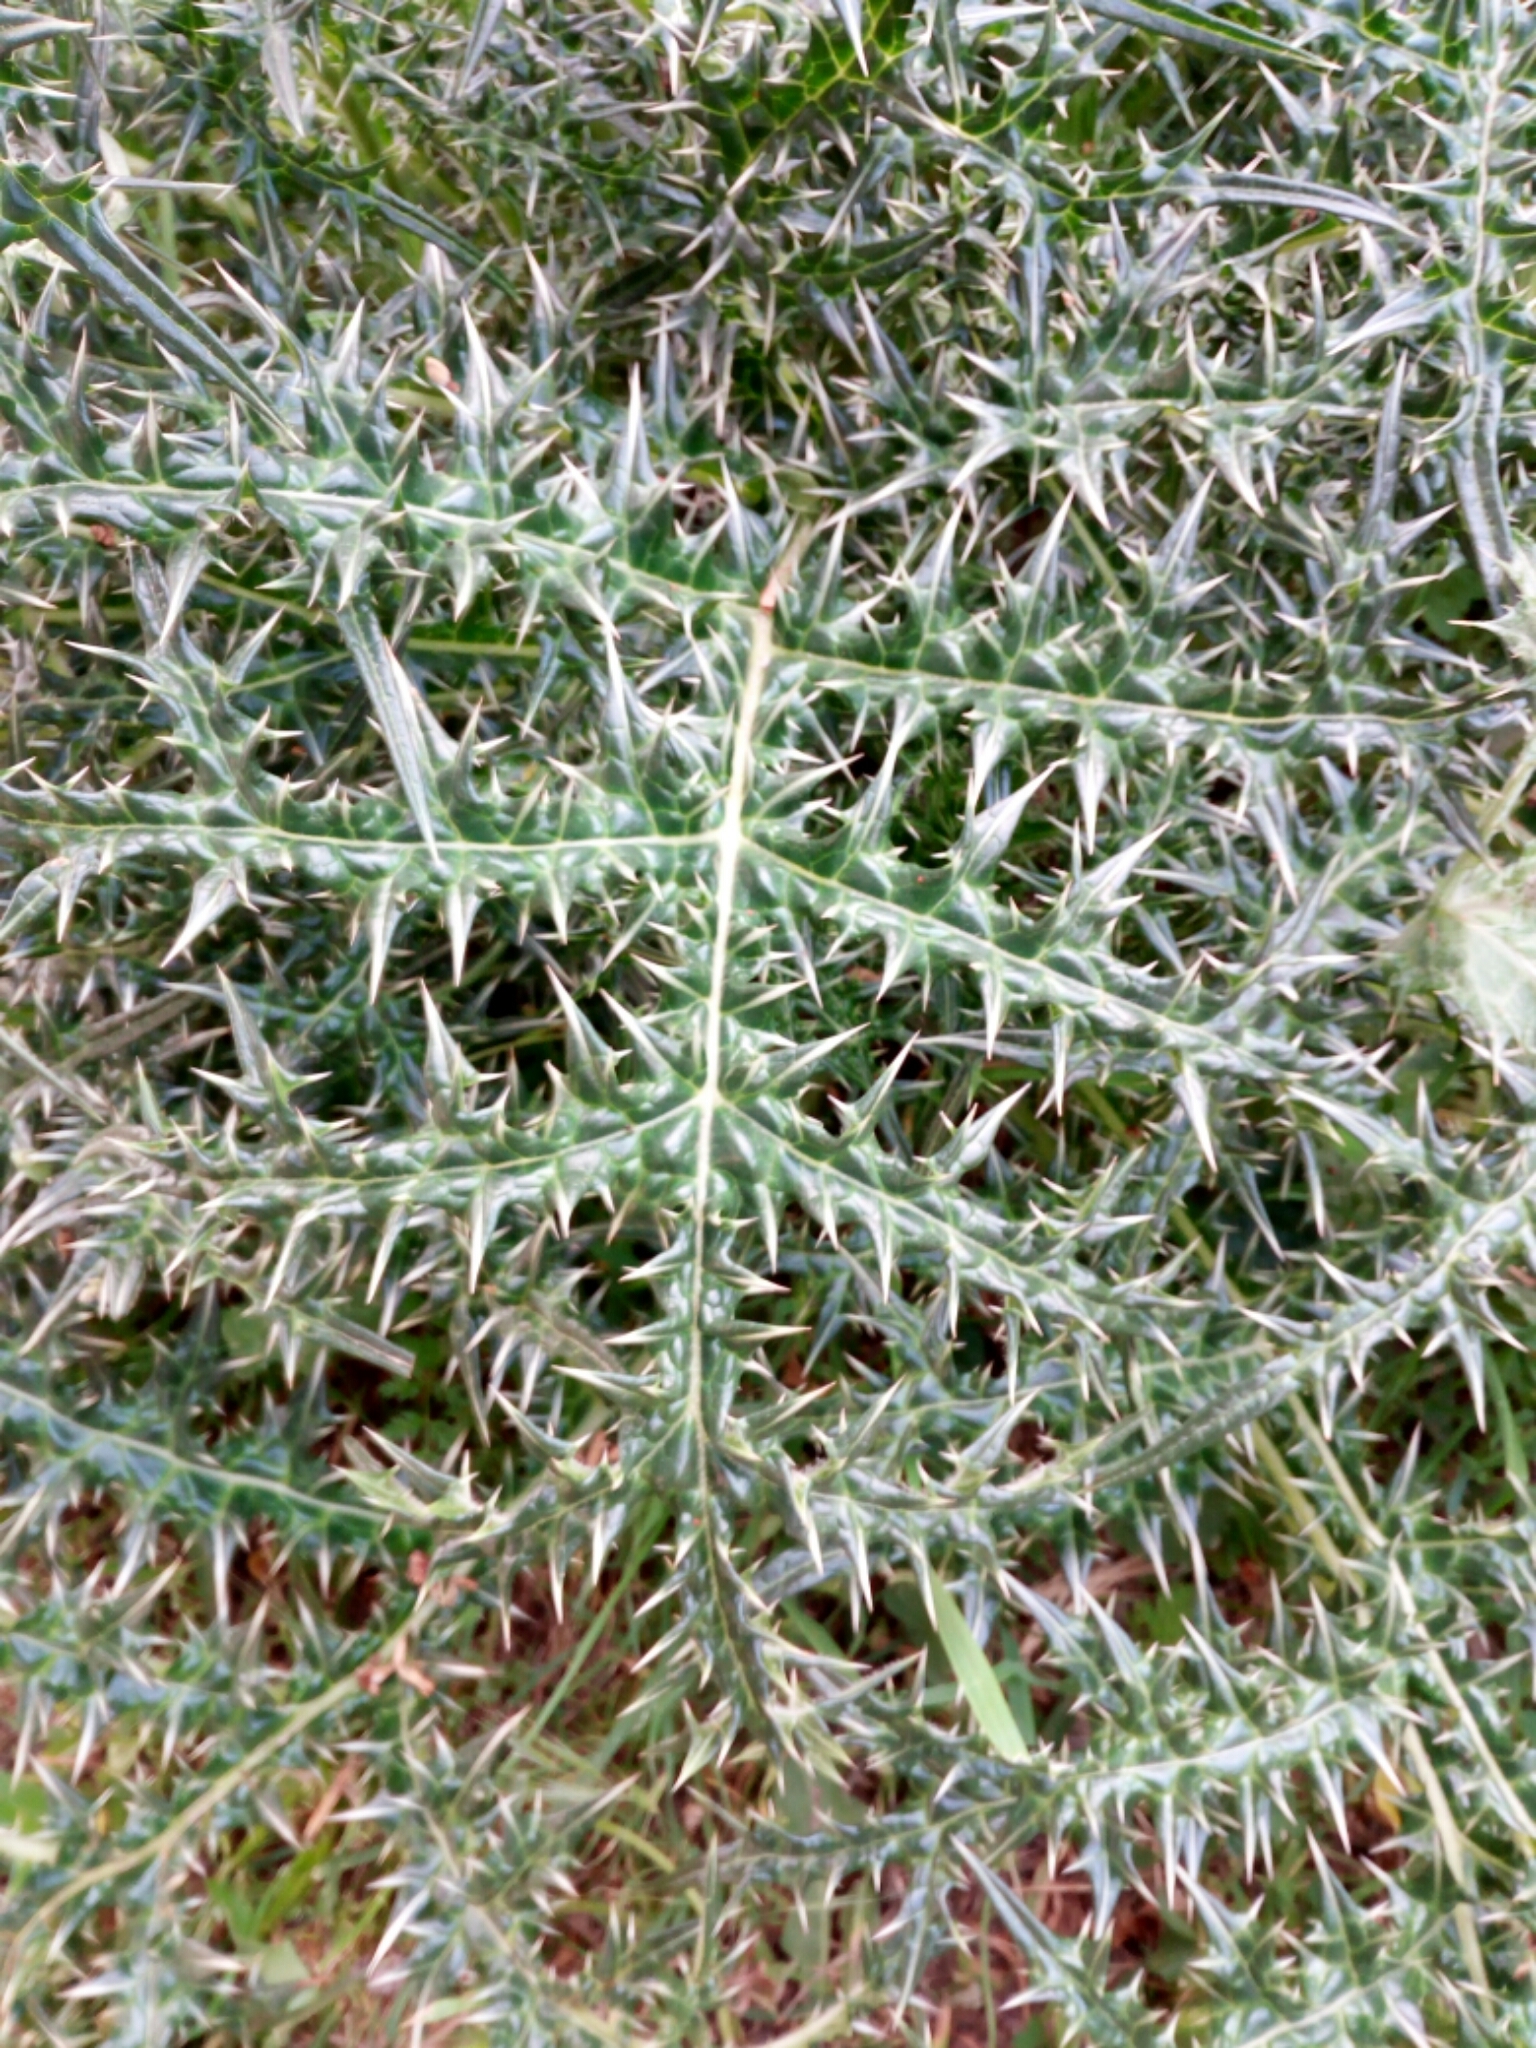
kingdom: Plantae
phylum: Tracheophyta
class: Magnoliopsida
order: Lamiales
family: Acanthaceae
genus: Acanthus
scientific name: Acanthus spinosus
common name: Spiny bear's-breech
